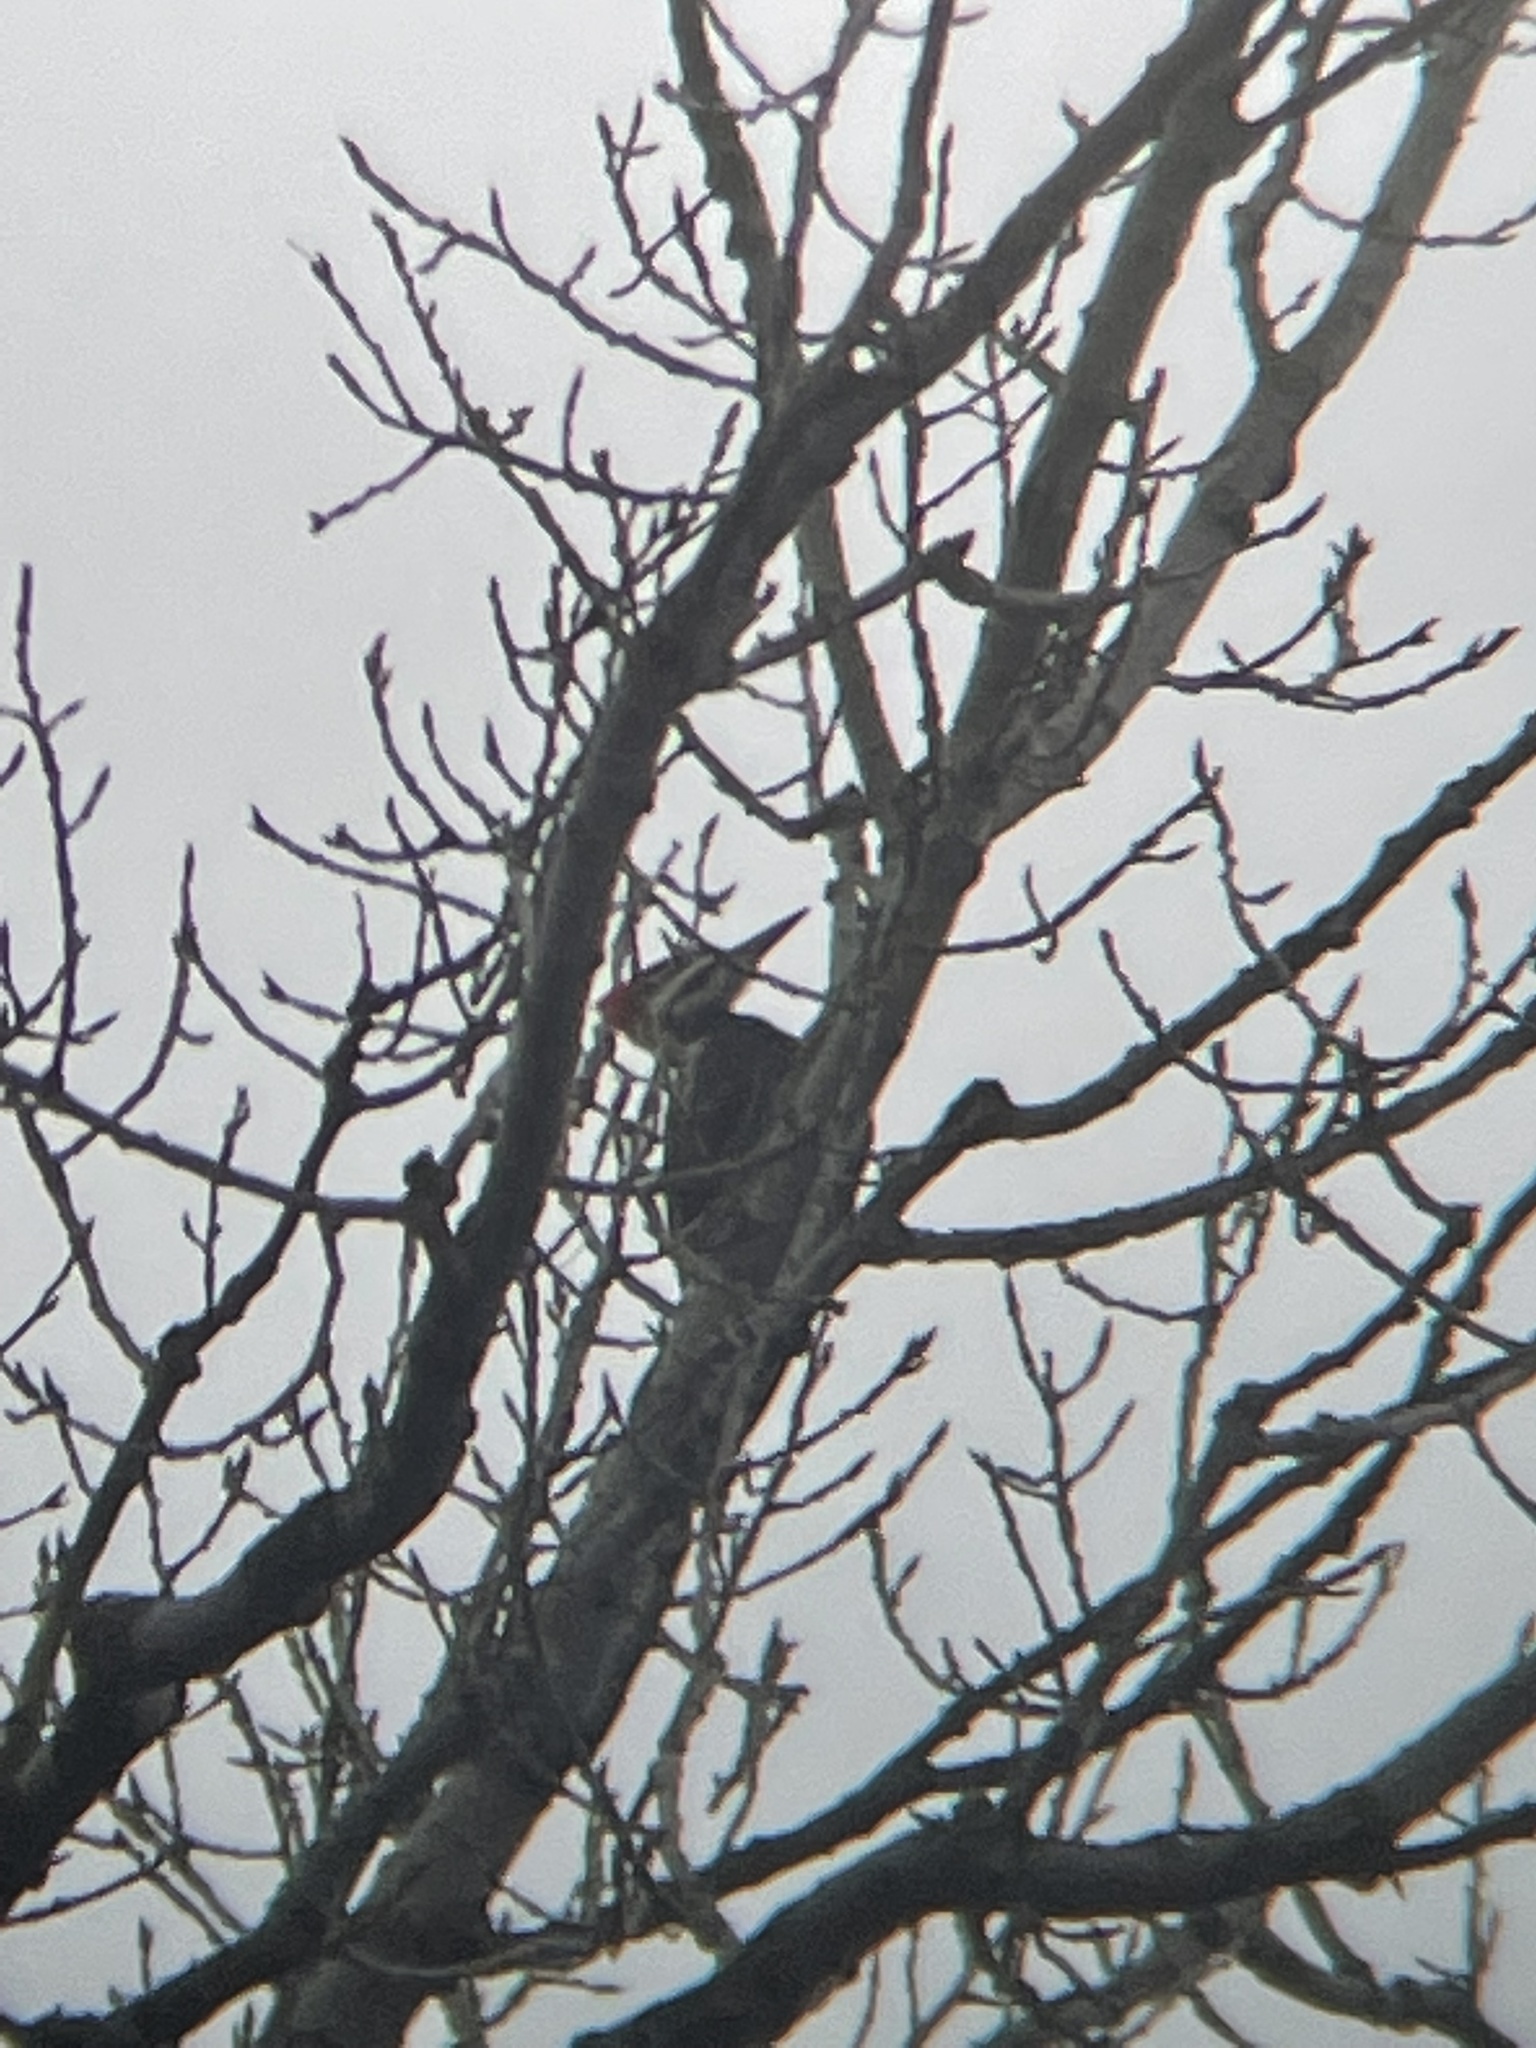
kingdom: Animalia
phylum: Chordata
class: Aves
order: Piciformes
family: Picidae
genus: Dryocopus
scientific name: Dryocopus pileatus
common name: Pileated woodpecker
